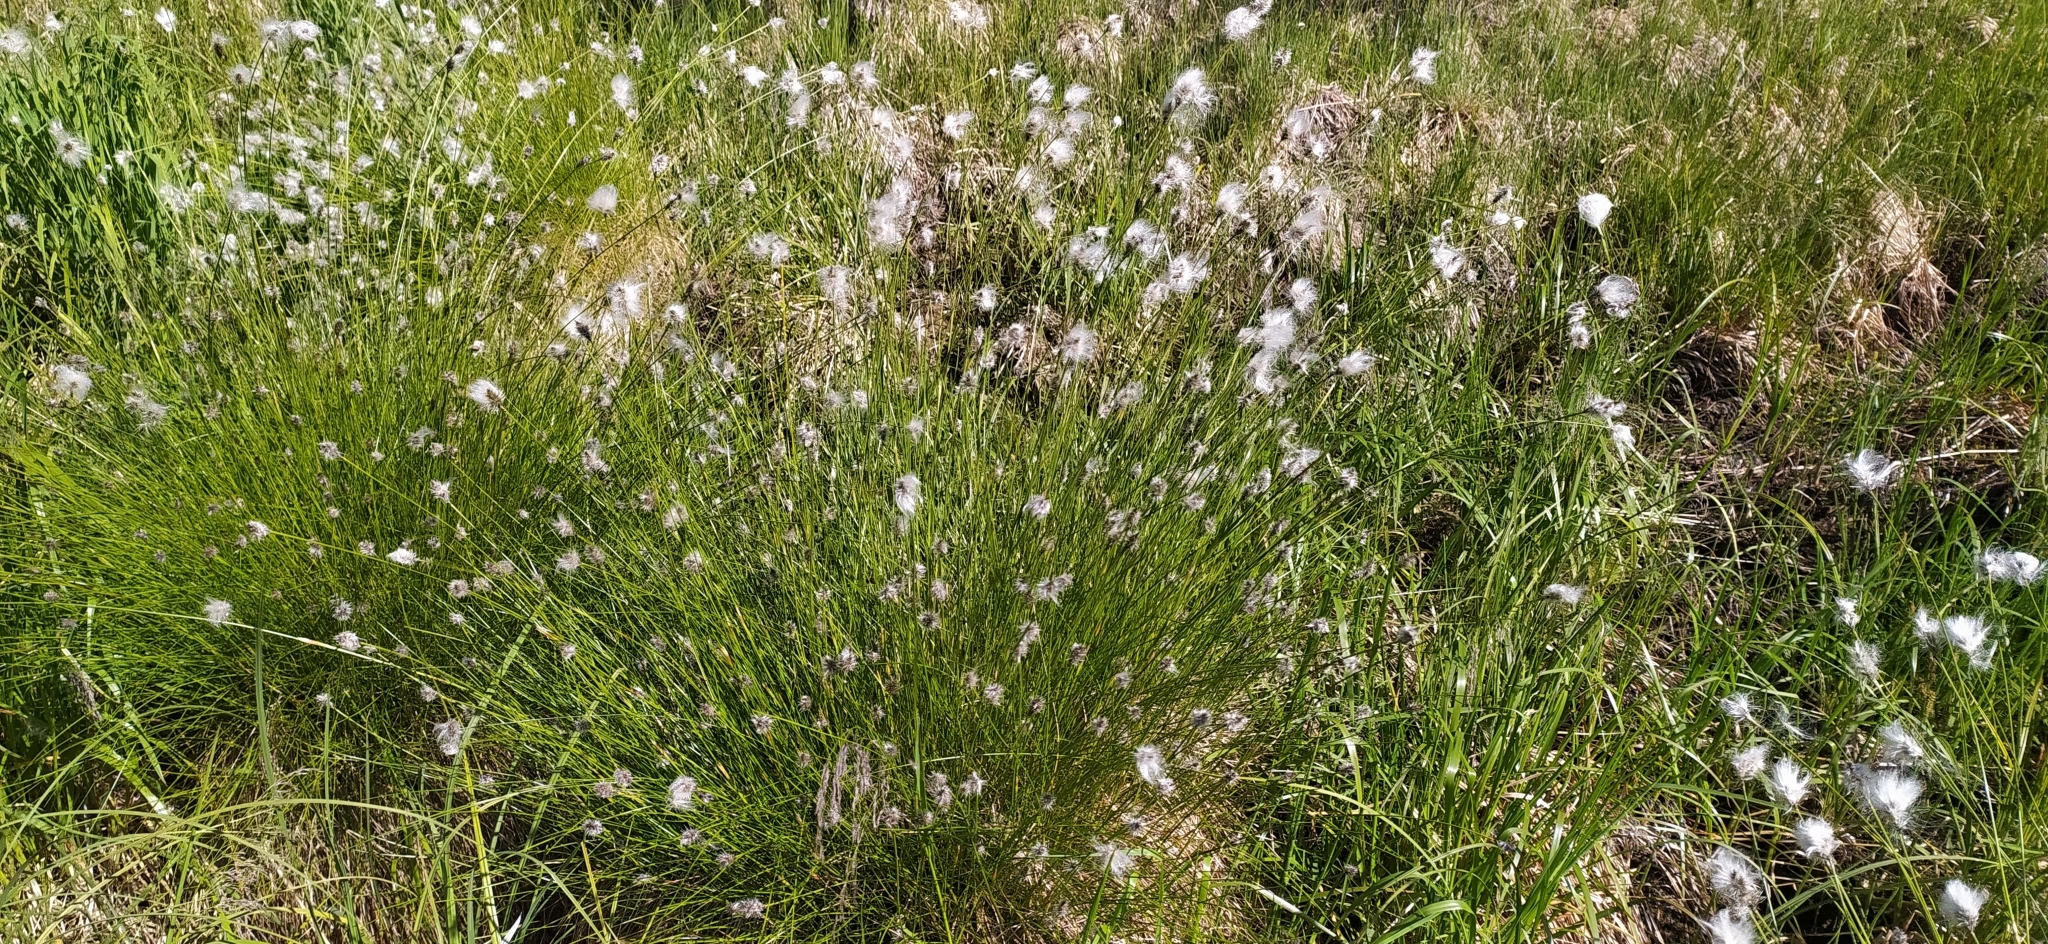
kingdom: Plantae
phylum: Tracheophyta
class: Liliopsida
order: Poales
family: Cyperaceae
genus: Eriophorum
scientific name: Eriophorum vaginatum
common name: Hare's-tail cottongrass
